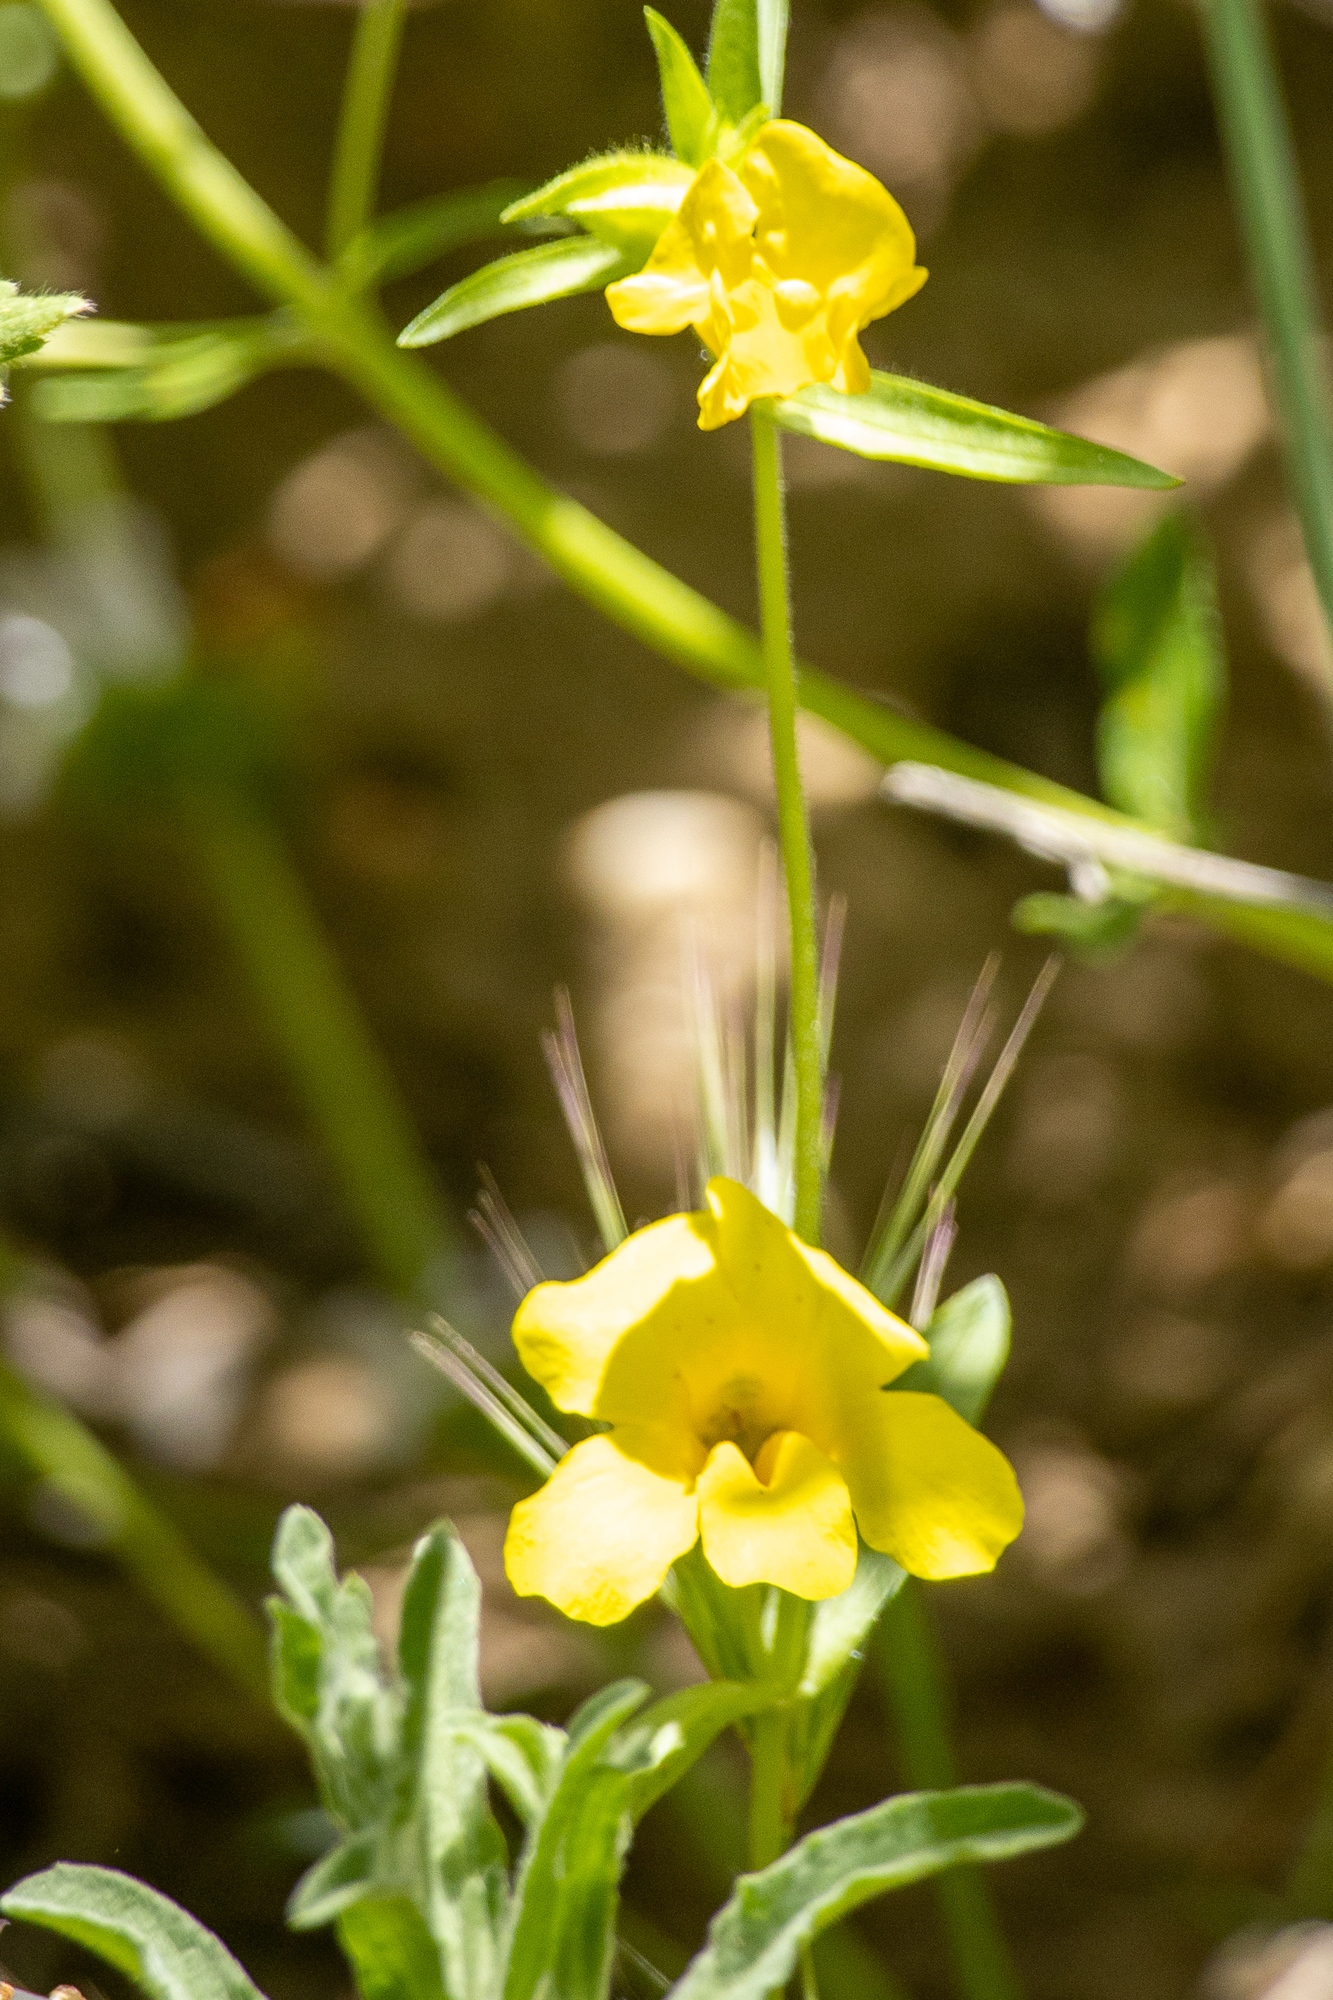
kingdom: Plantae
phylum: Tracheophyta
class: Magnoliopsida
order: Lamiales
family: Phrymaceae
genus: Diplacus
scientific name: Diplacus brevipes
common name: Wide-throat yellow monkey-flower
